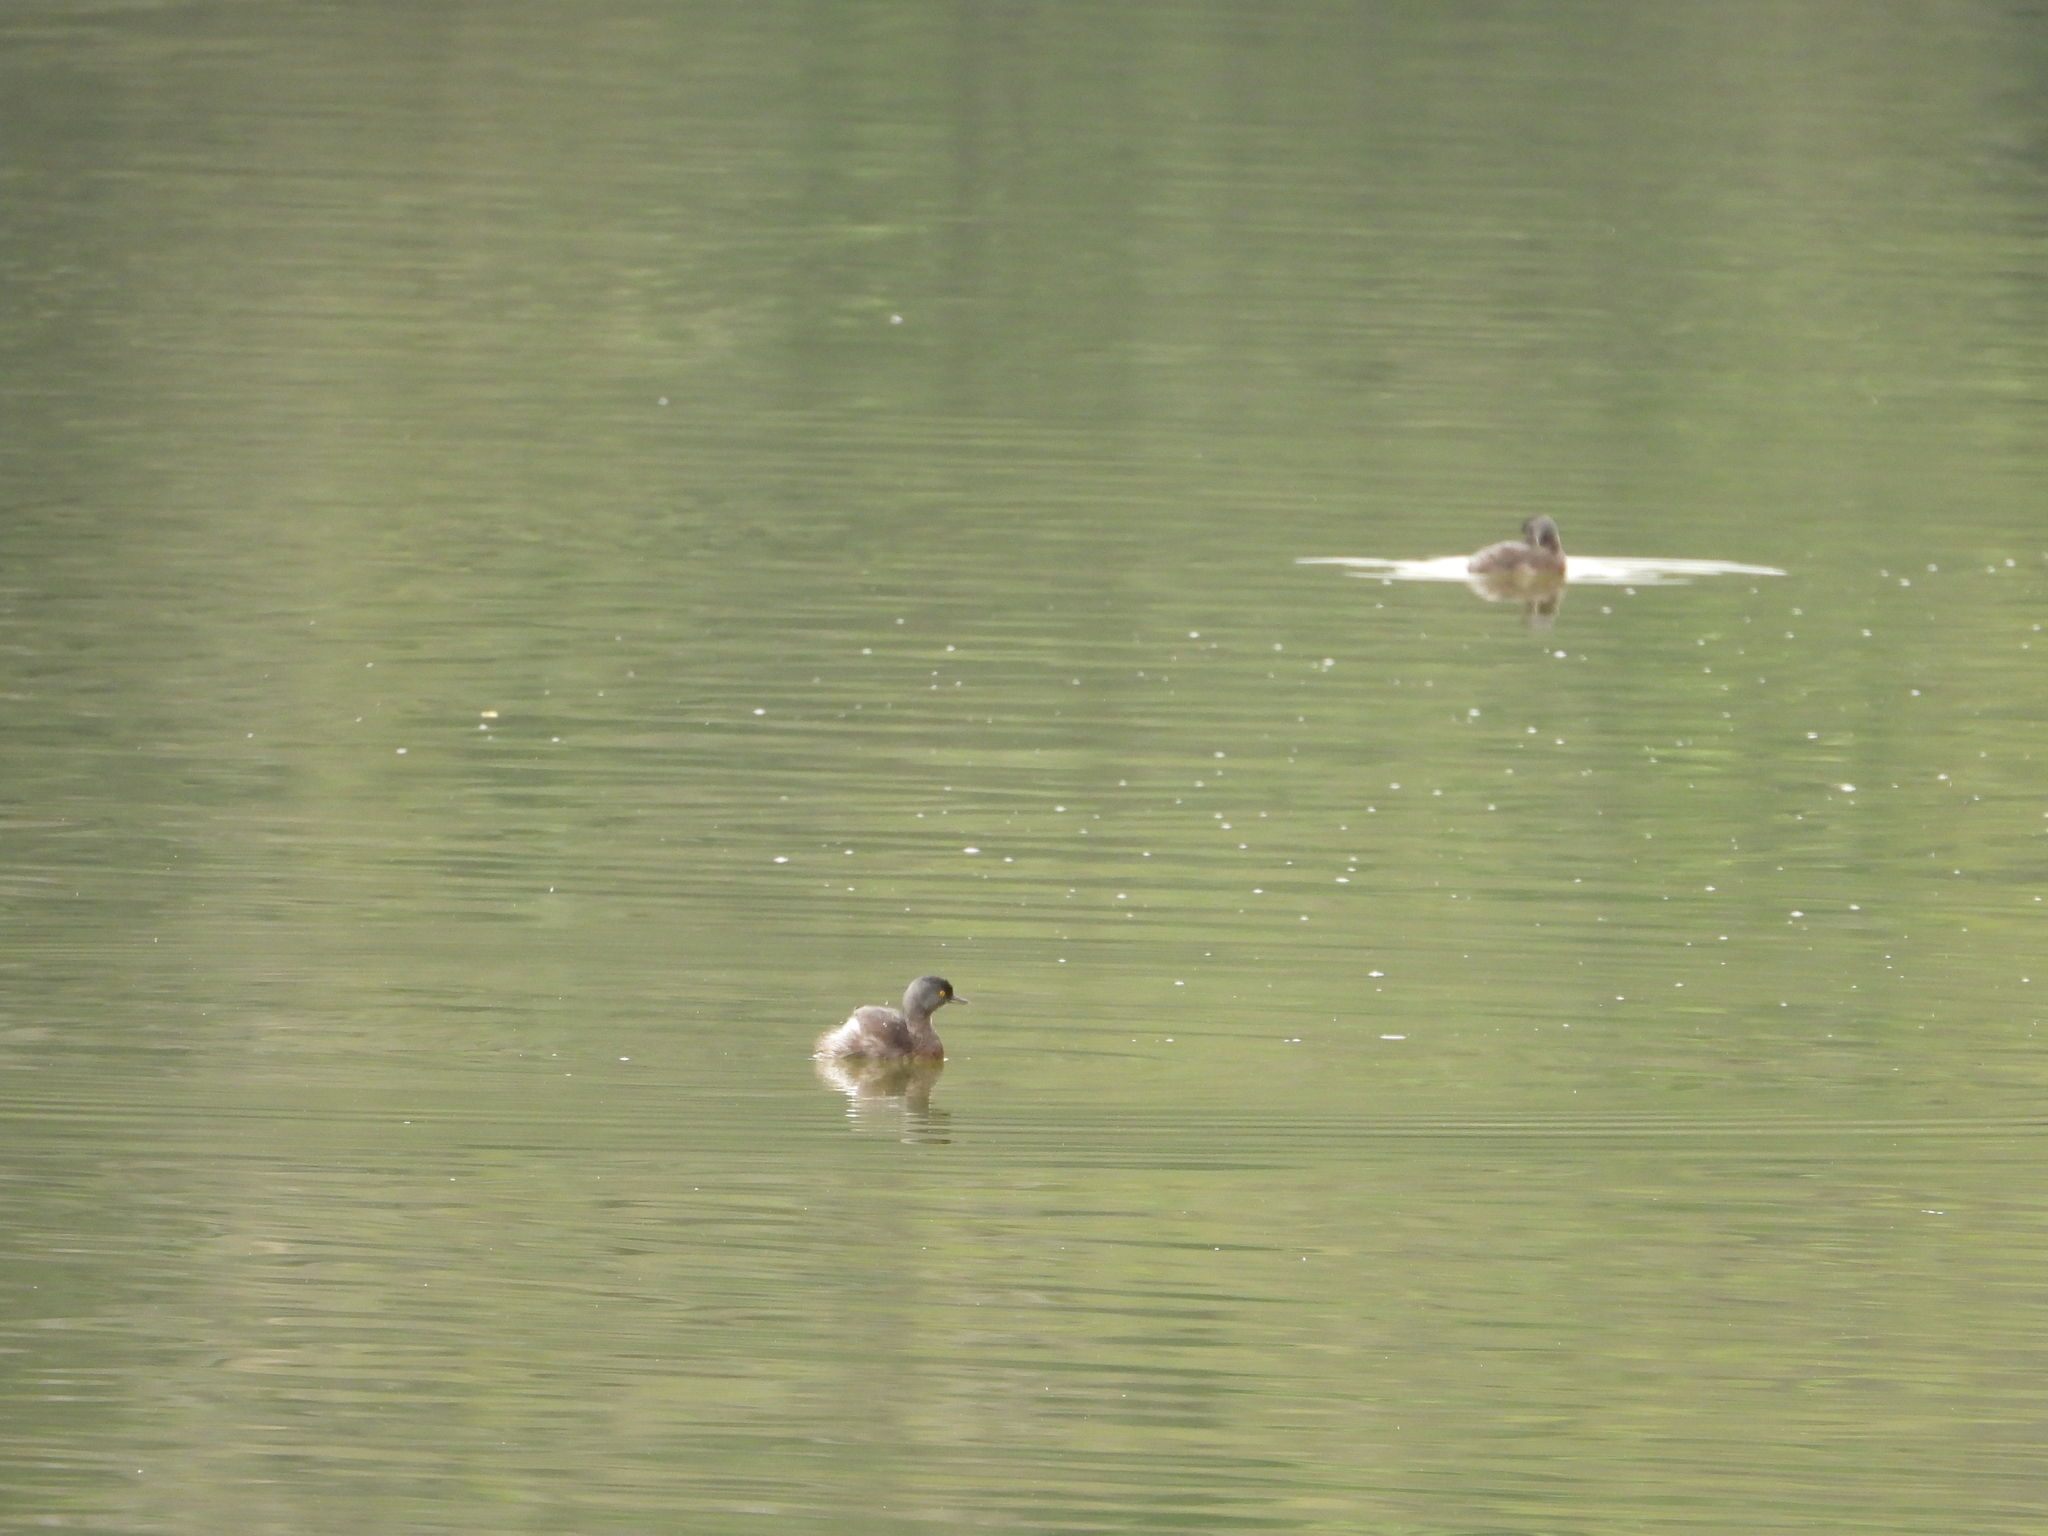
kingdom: Animalia
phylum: Chordata
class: Aves
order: Podicipediformes
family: Podicipedidae
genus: Tachybaptus
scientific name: Tachybaptus dominicus
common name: Least grebe
